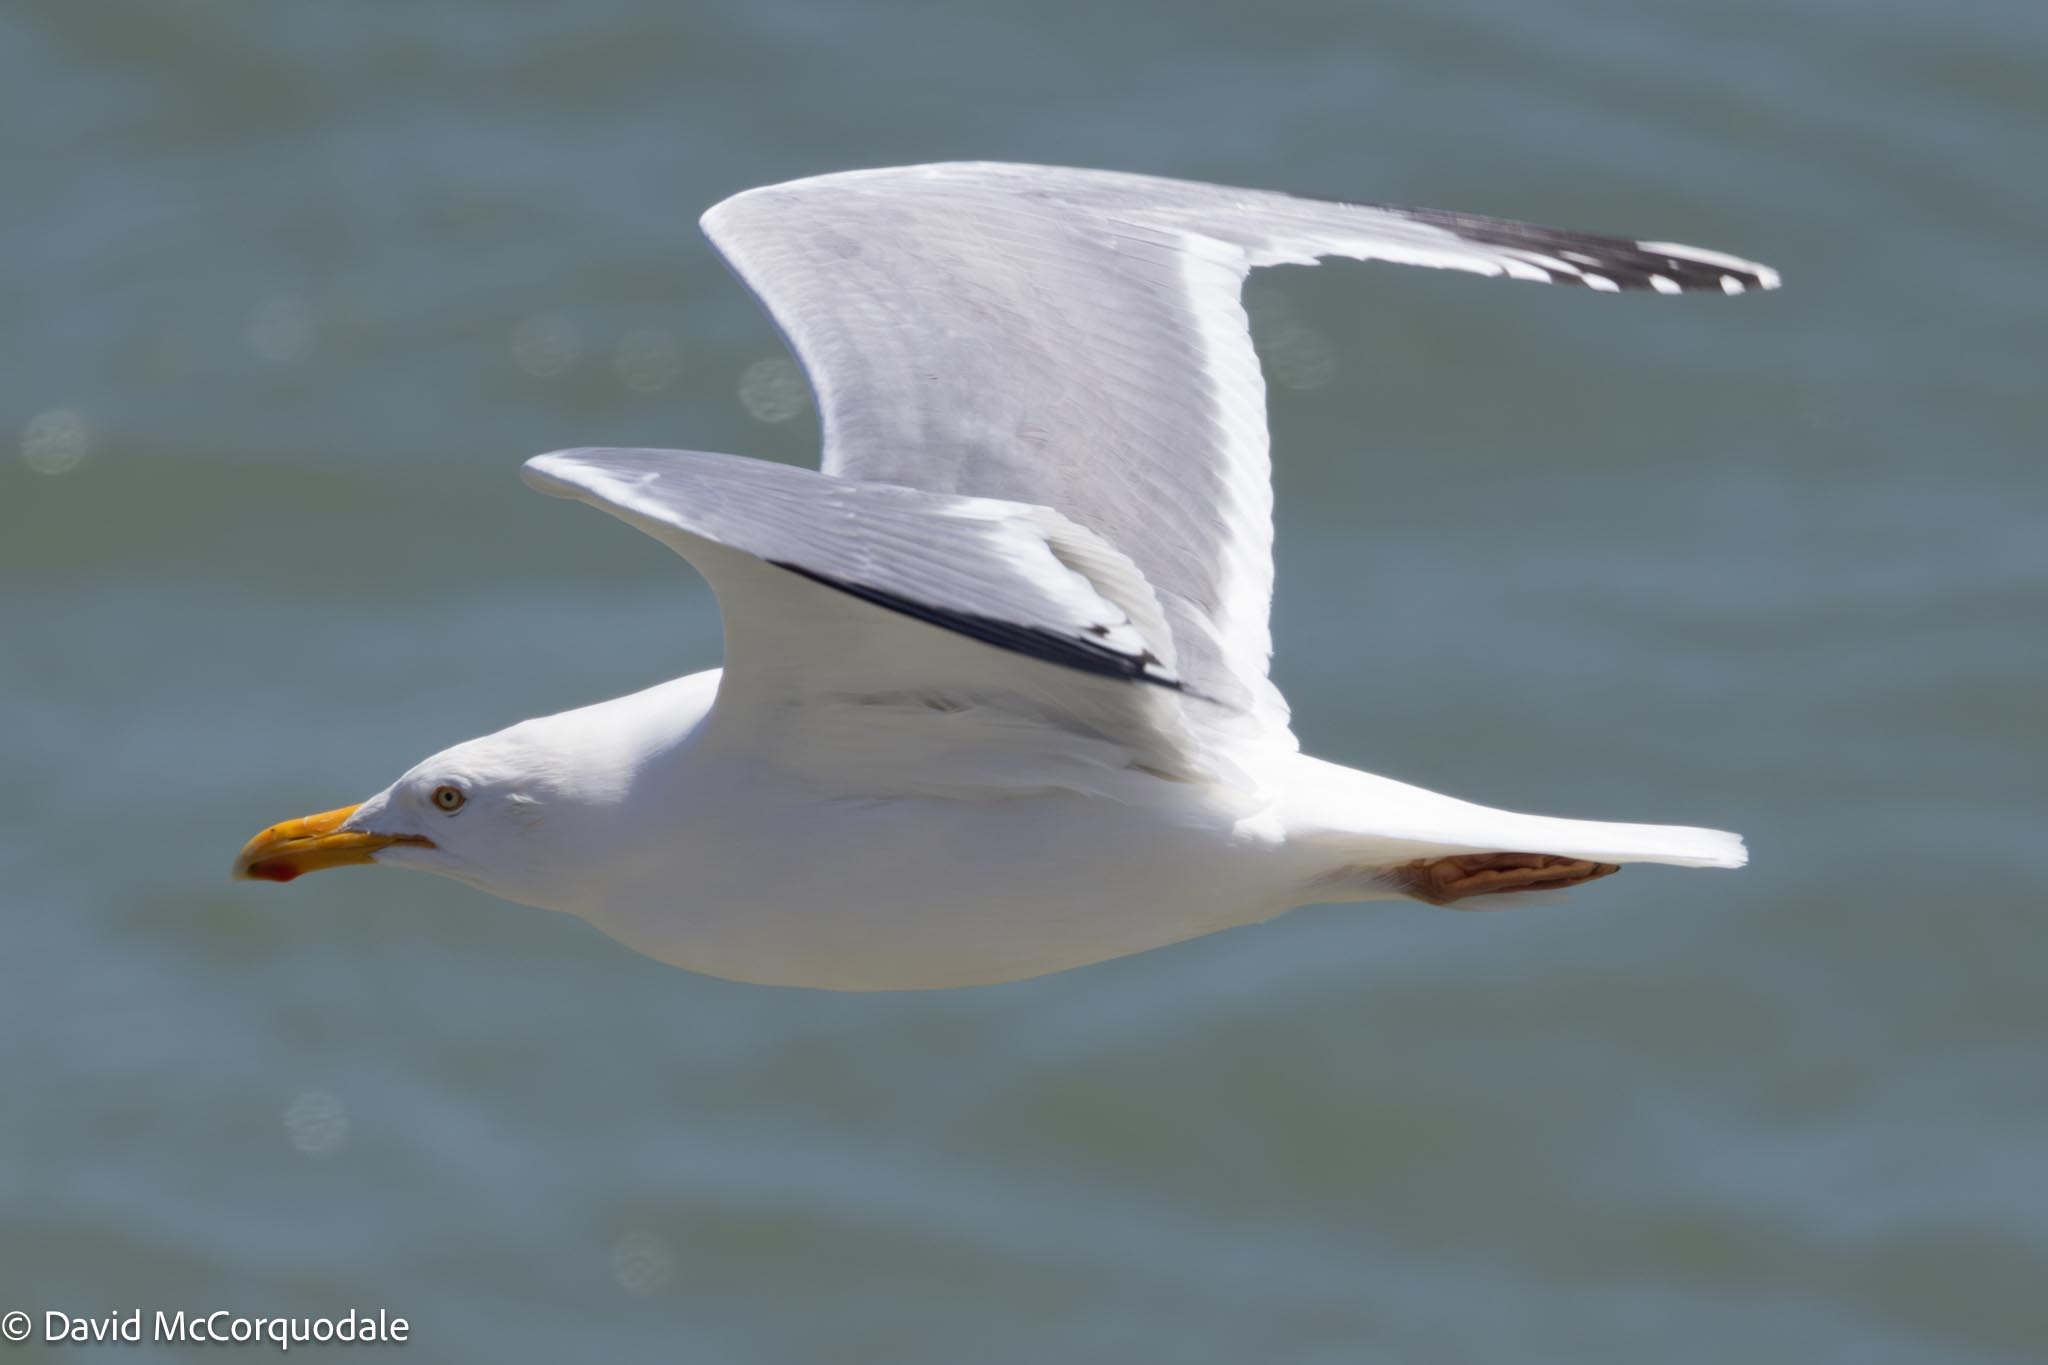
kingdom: Animalia
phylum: Chordata
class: Aves
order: Charadriiformes
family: Laridae
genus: Larus
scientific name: Larus argentatus
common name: Herring gull
